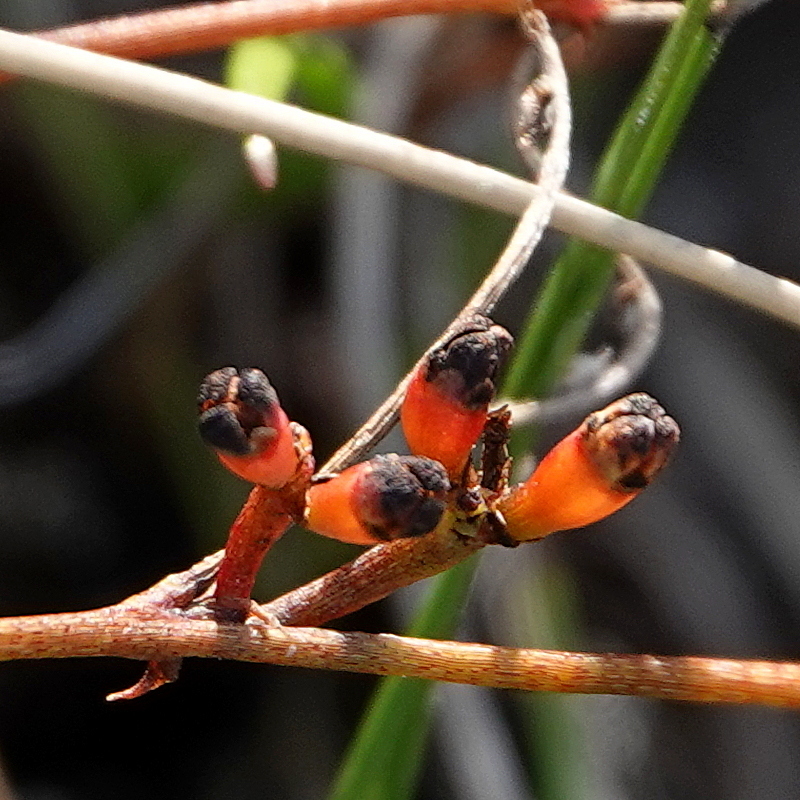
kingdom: Plantae
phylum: Tracheophyta
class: Magnoliopsida
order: Laurales
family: Lauraceae
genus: Cassytha
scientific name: Cassytha glabella
